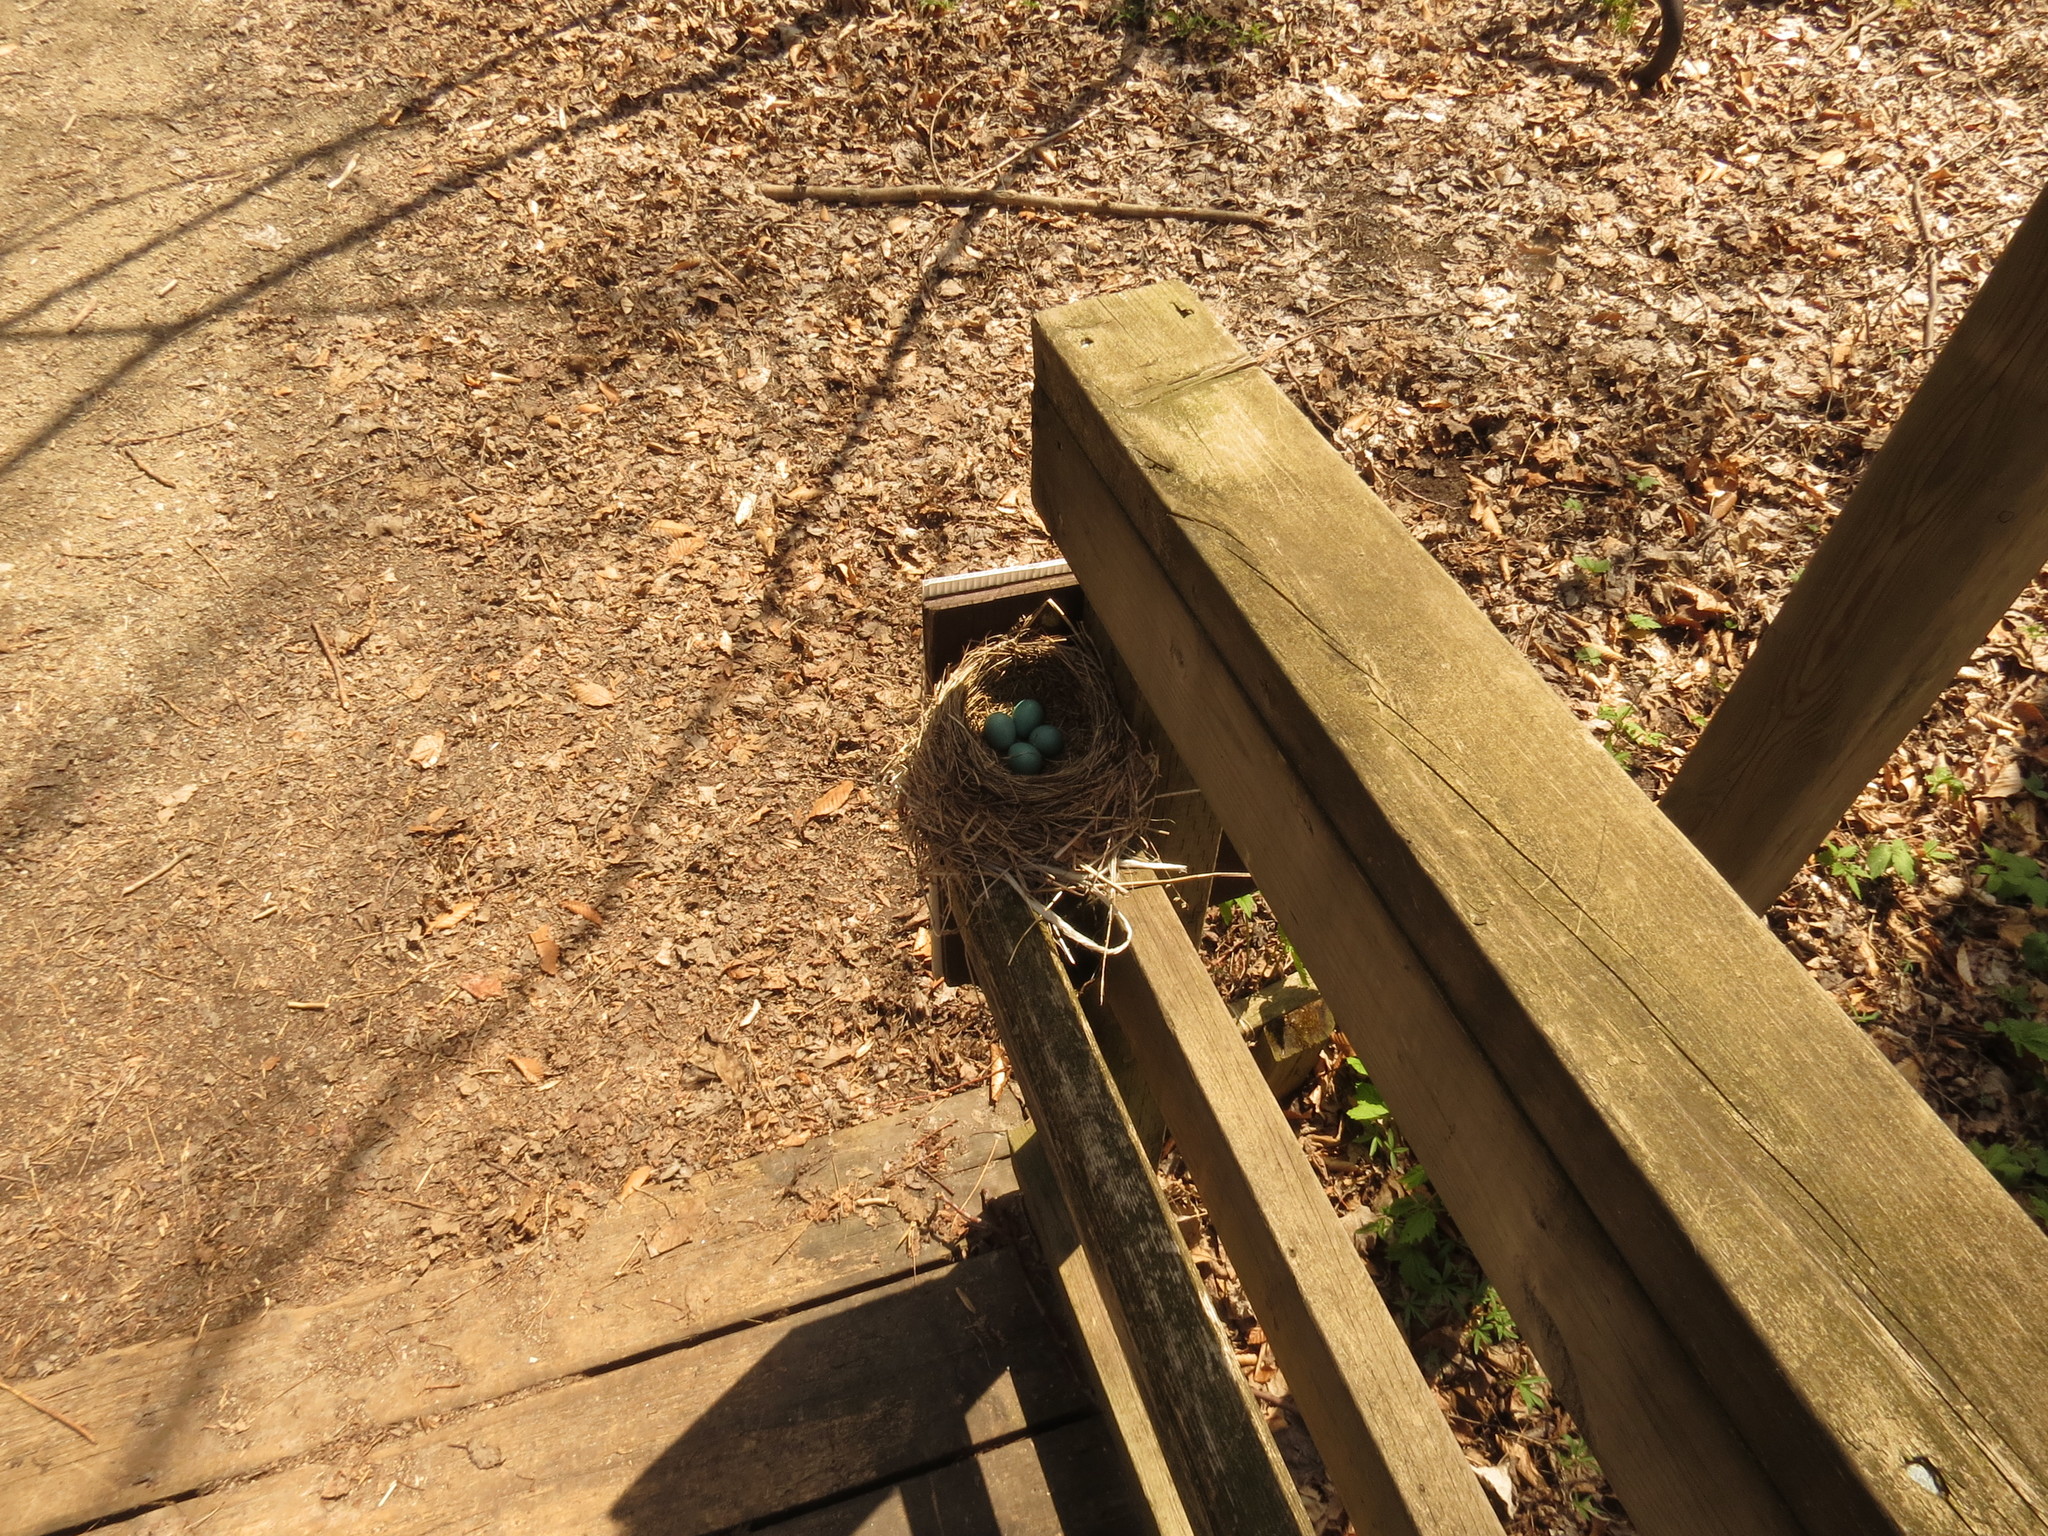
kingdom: Animalia
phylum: Chordata
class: Aves
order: Passeriformes
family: Turdidae
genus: Turdus
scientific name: Turdus migratorius
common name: American robin
